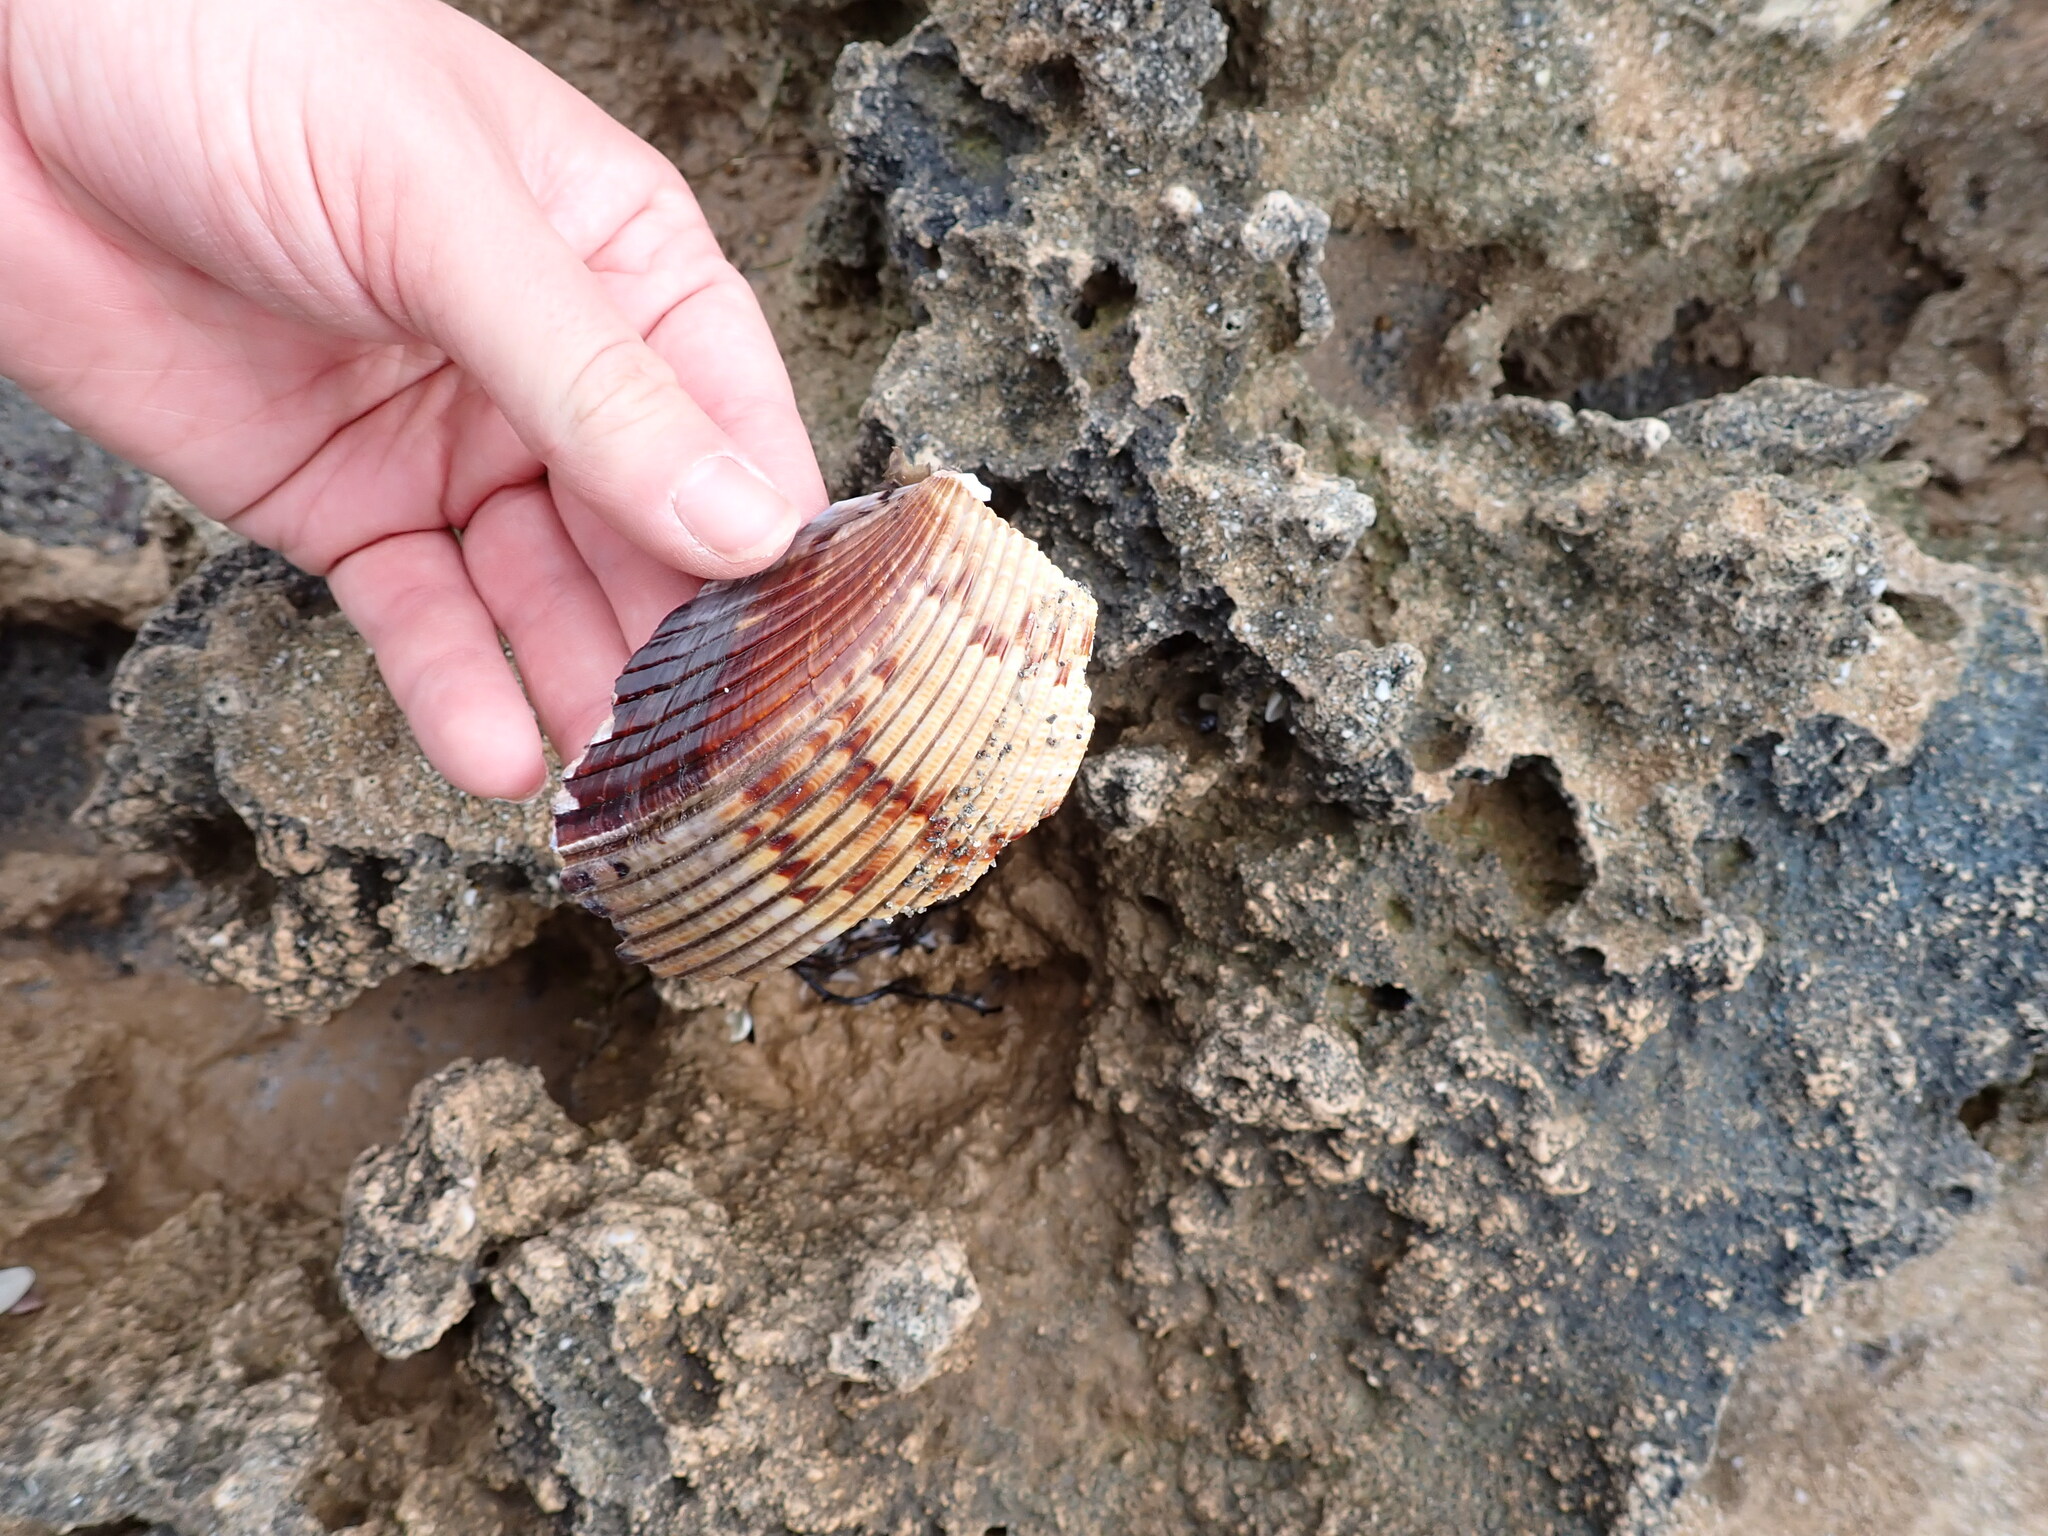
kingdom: Animalia
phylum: Mollusca
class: Bivalvia
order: Cardiida
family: Cardiidae
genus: Dinocardium
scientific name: Dinocardium robustum
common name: Atlantic giant cockle
